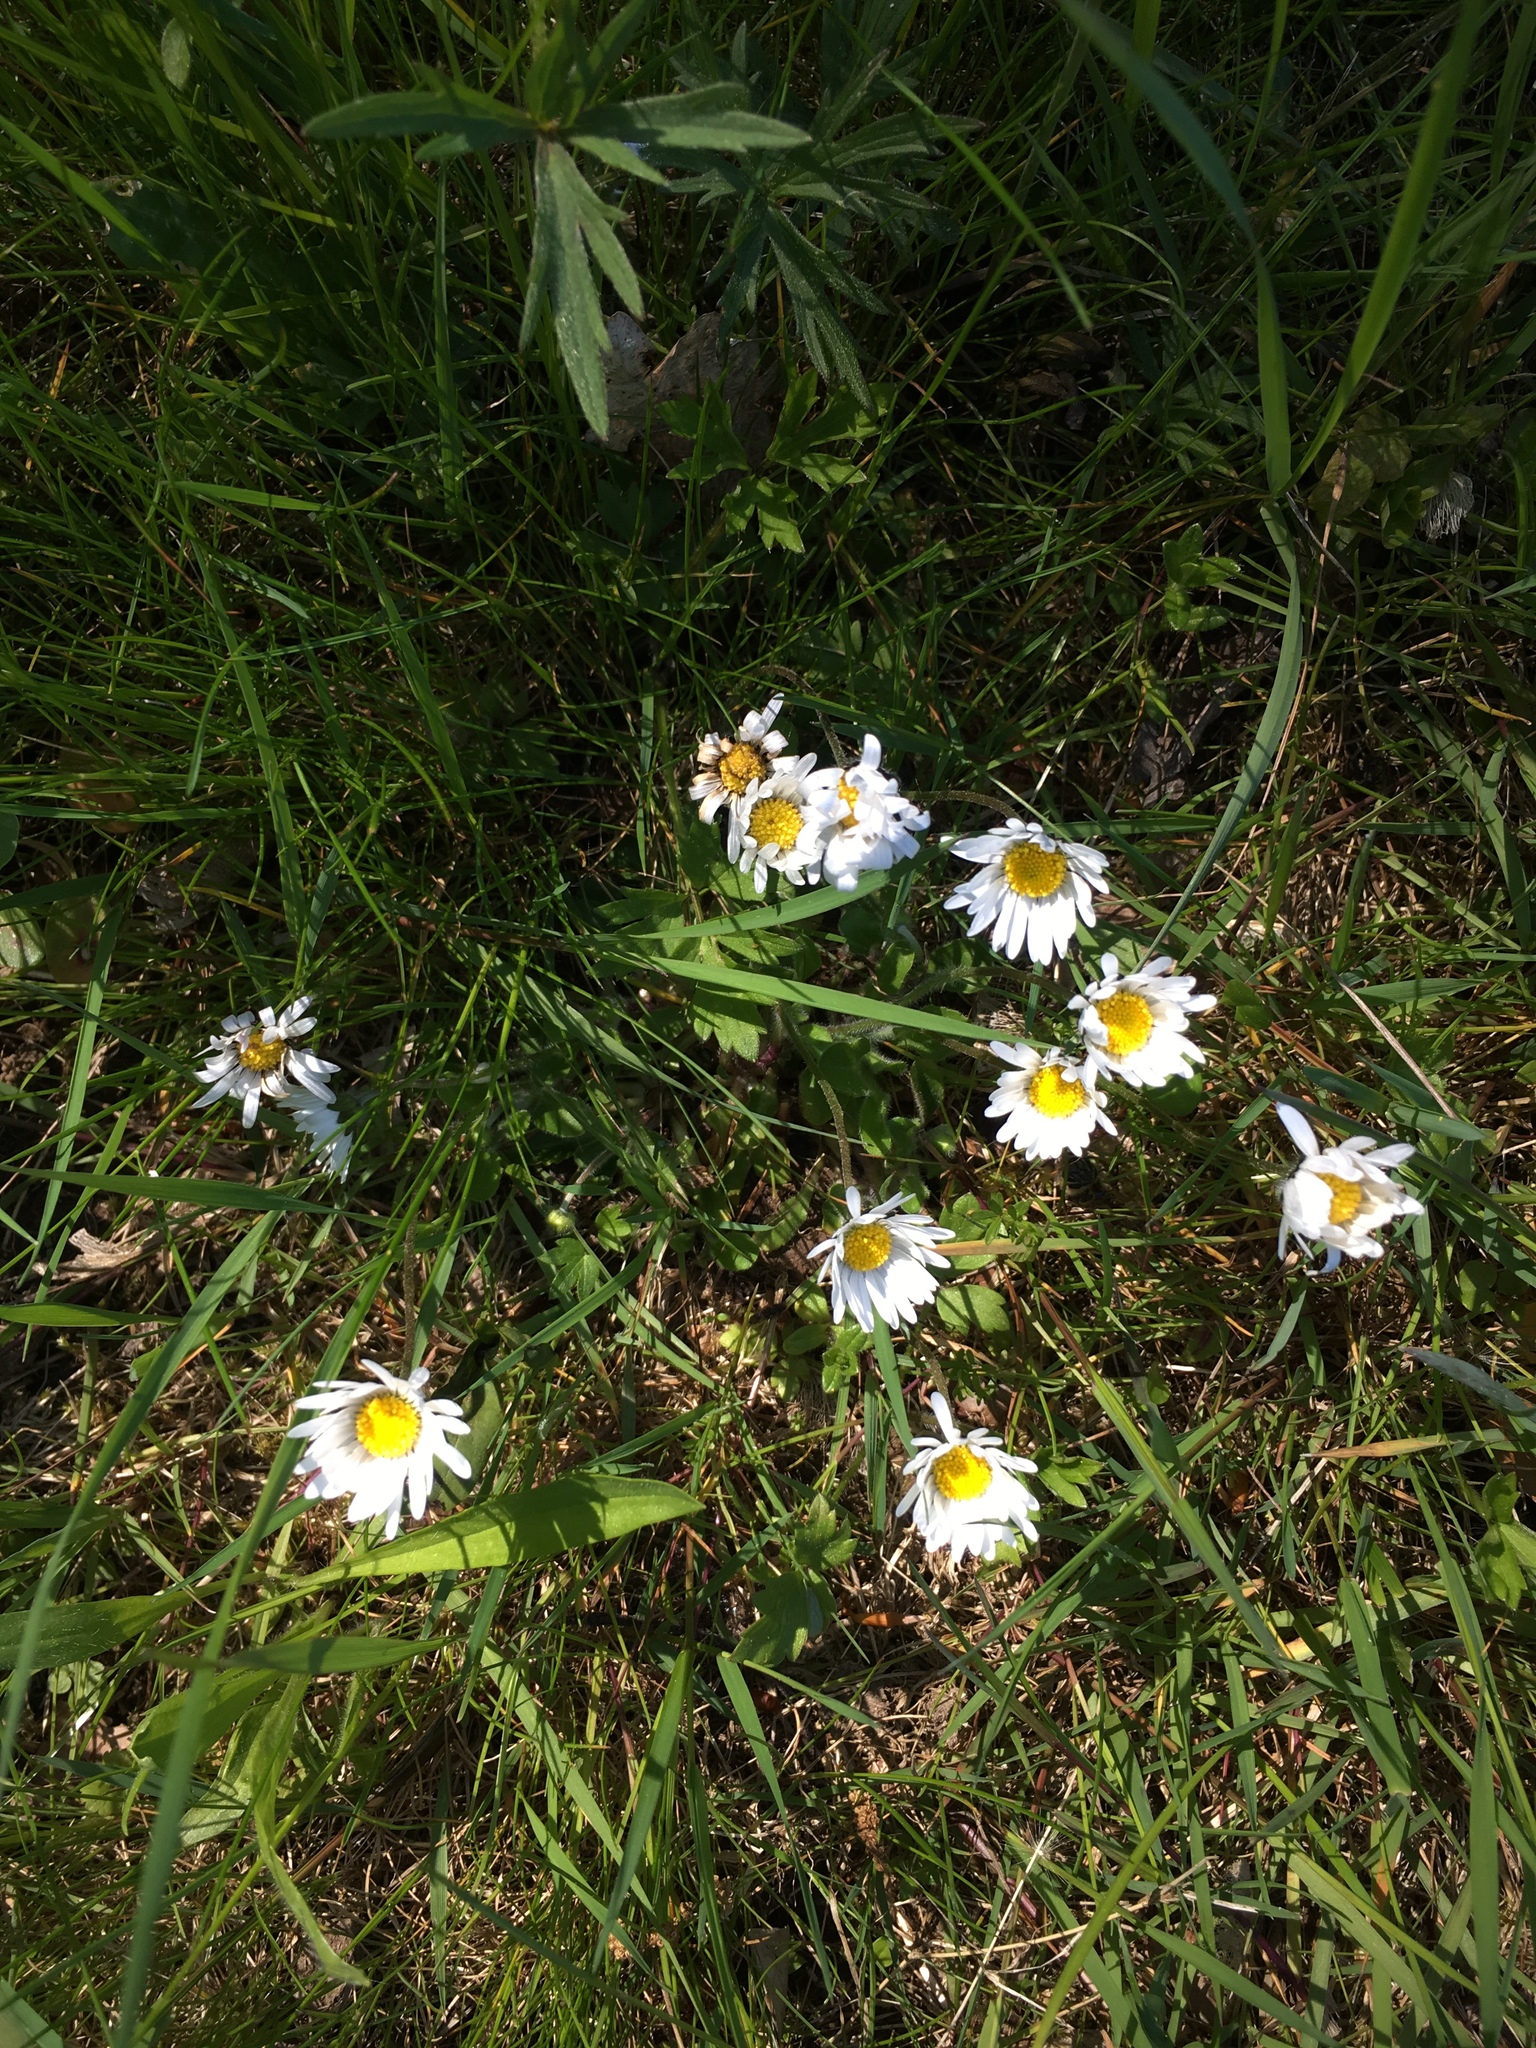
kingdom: Plantae
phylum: Tracheophyta
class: Magnoliopsida
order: Asterales
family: Asteraceae
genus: Bellis
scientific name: Bellis perennis
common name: Lawndaisy
